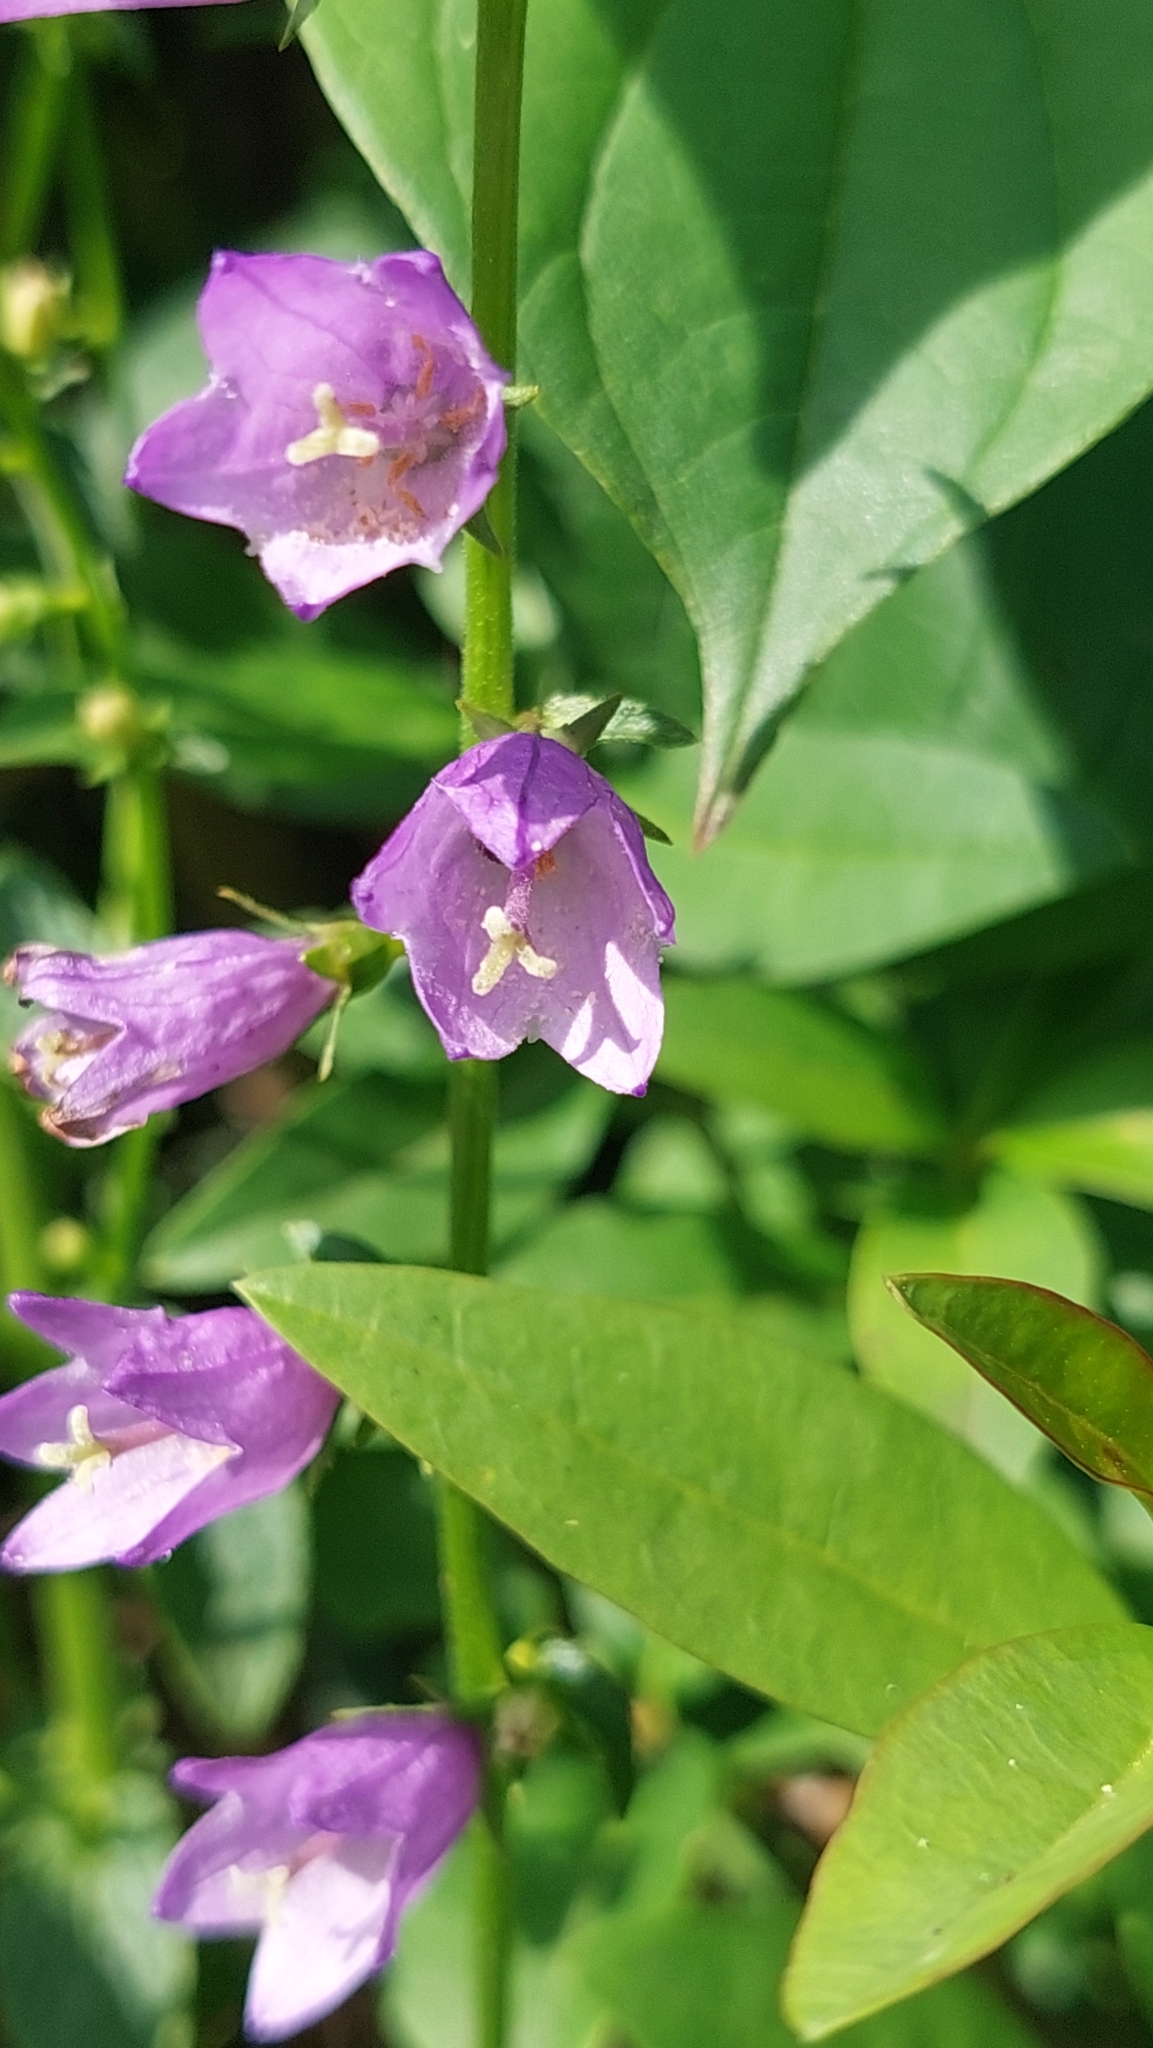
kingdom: Plantae
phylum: Tracheophyta
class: Magnoliopsida
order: Asterales
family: Campanulaceae
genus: Campanula
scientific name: Campanula rapunculoides
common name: Creeping bellflower
